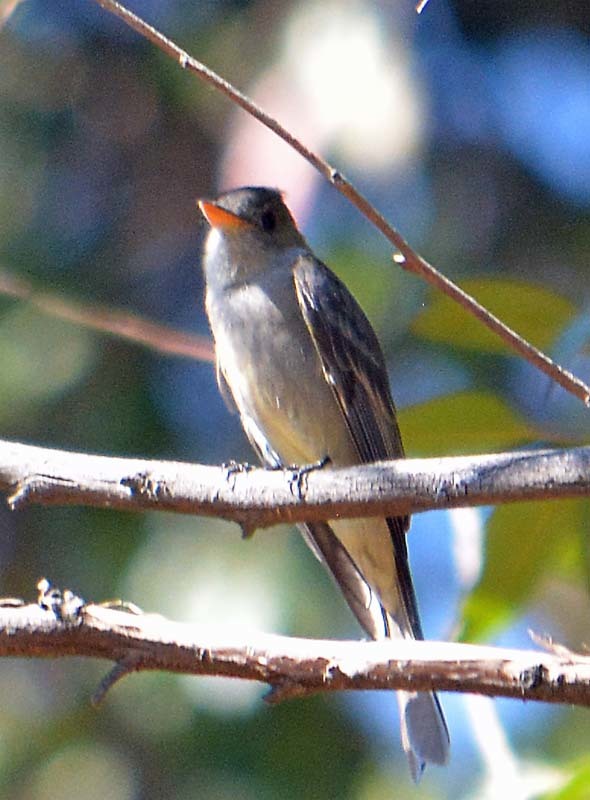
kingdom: Animalia
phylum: Chordata
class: Aves
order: Passeriformes
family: Tyrannidae
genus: Contopus
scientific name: Contopus pertinax
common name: Greater pewee
